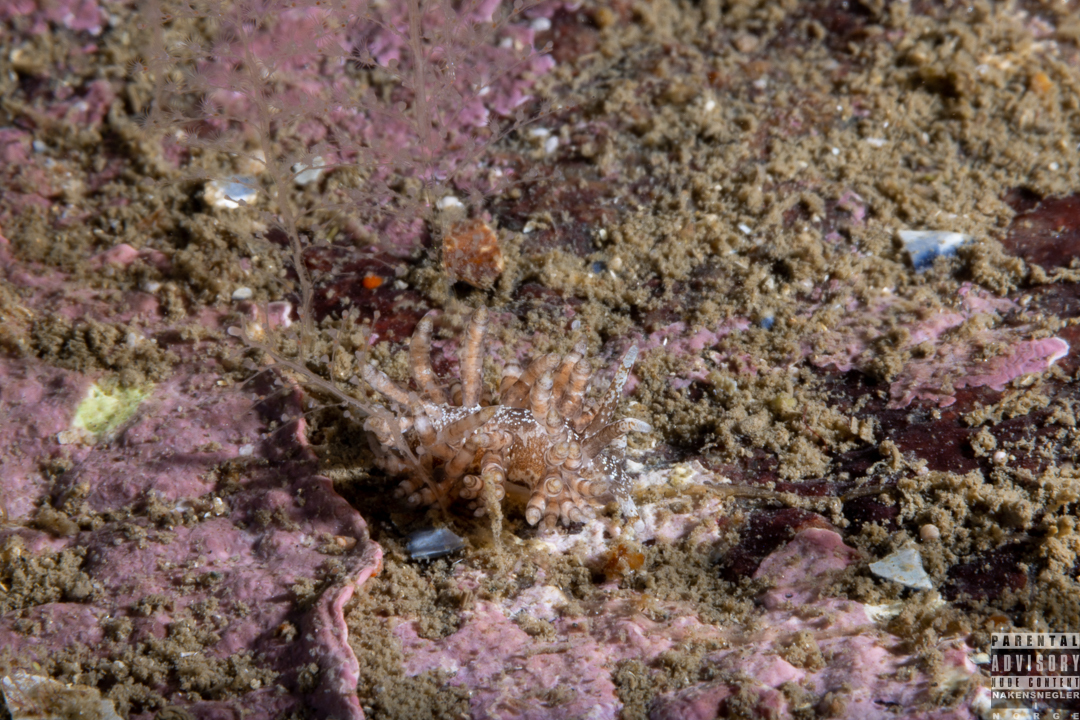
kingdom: Animalia
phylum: Mollusca
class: Gastropoda
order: Nudibranchia
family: Eubranchidae
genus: Eubranchus
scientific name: Eubranchus vittatus
